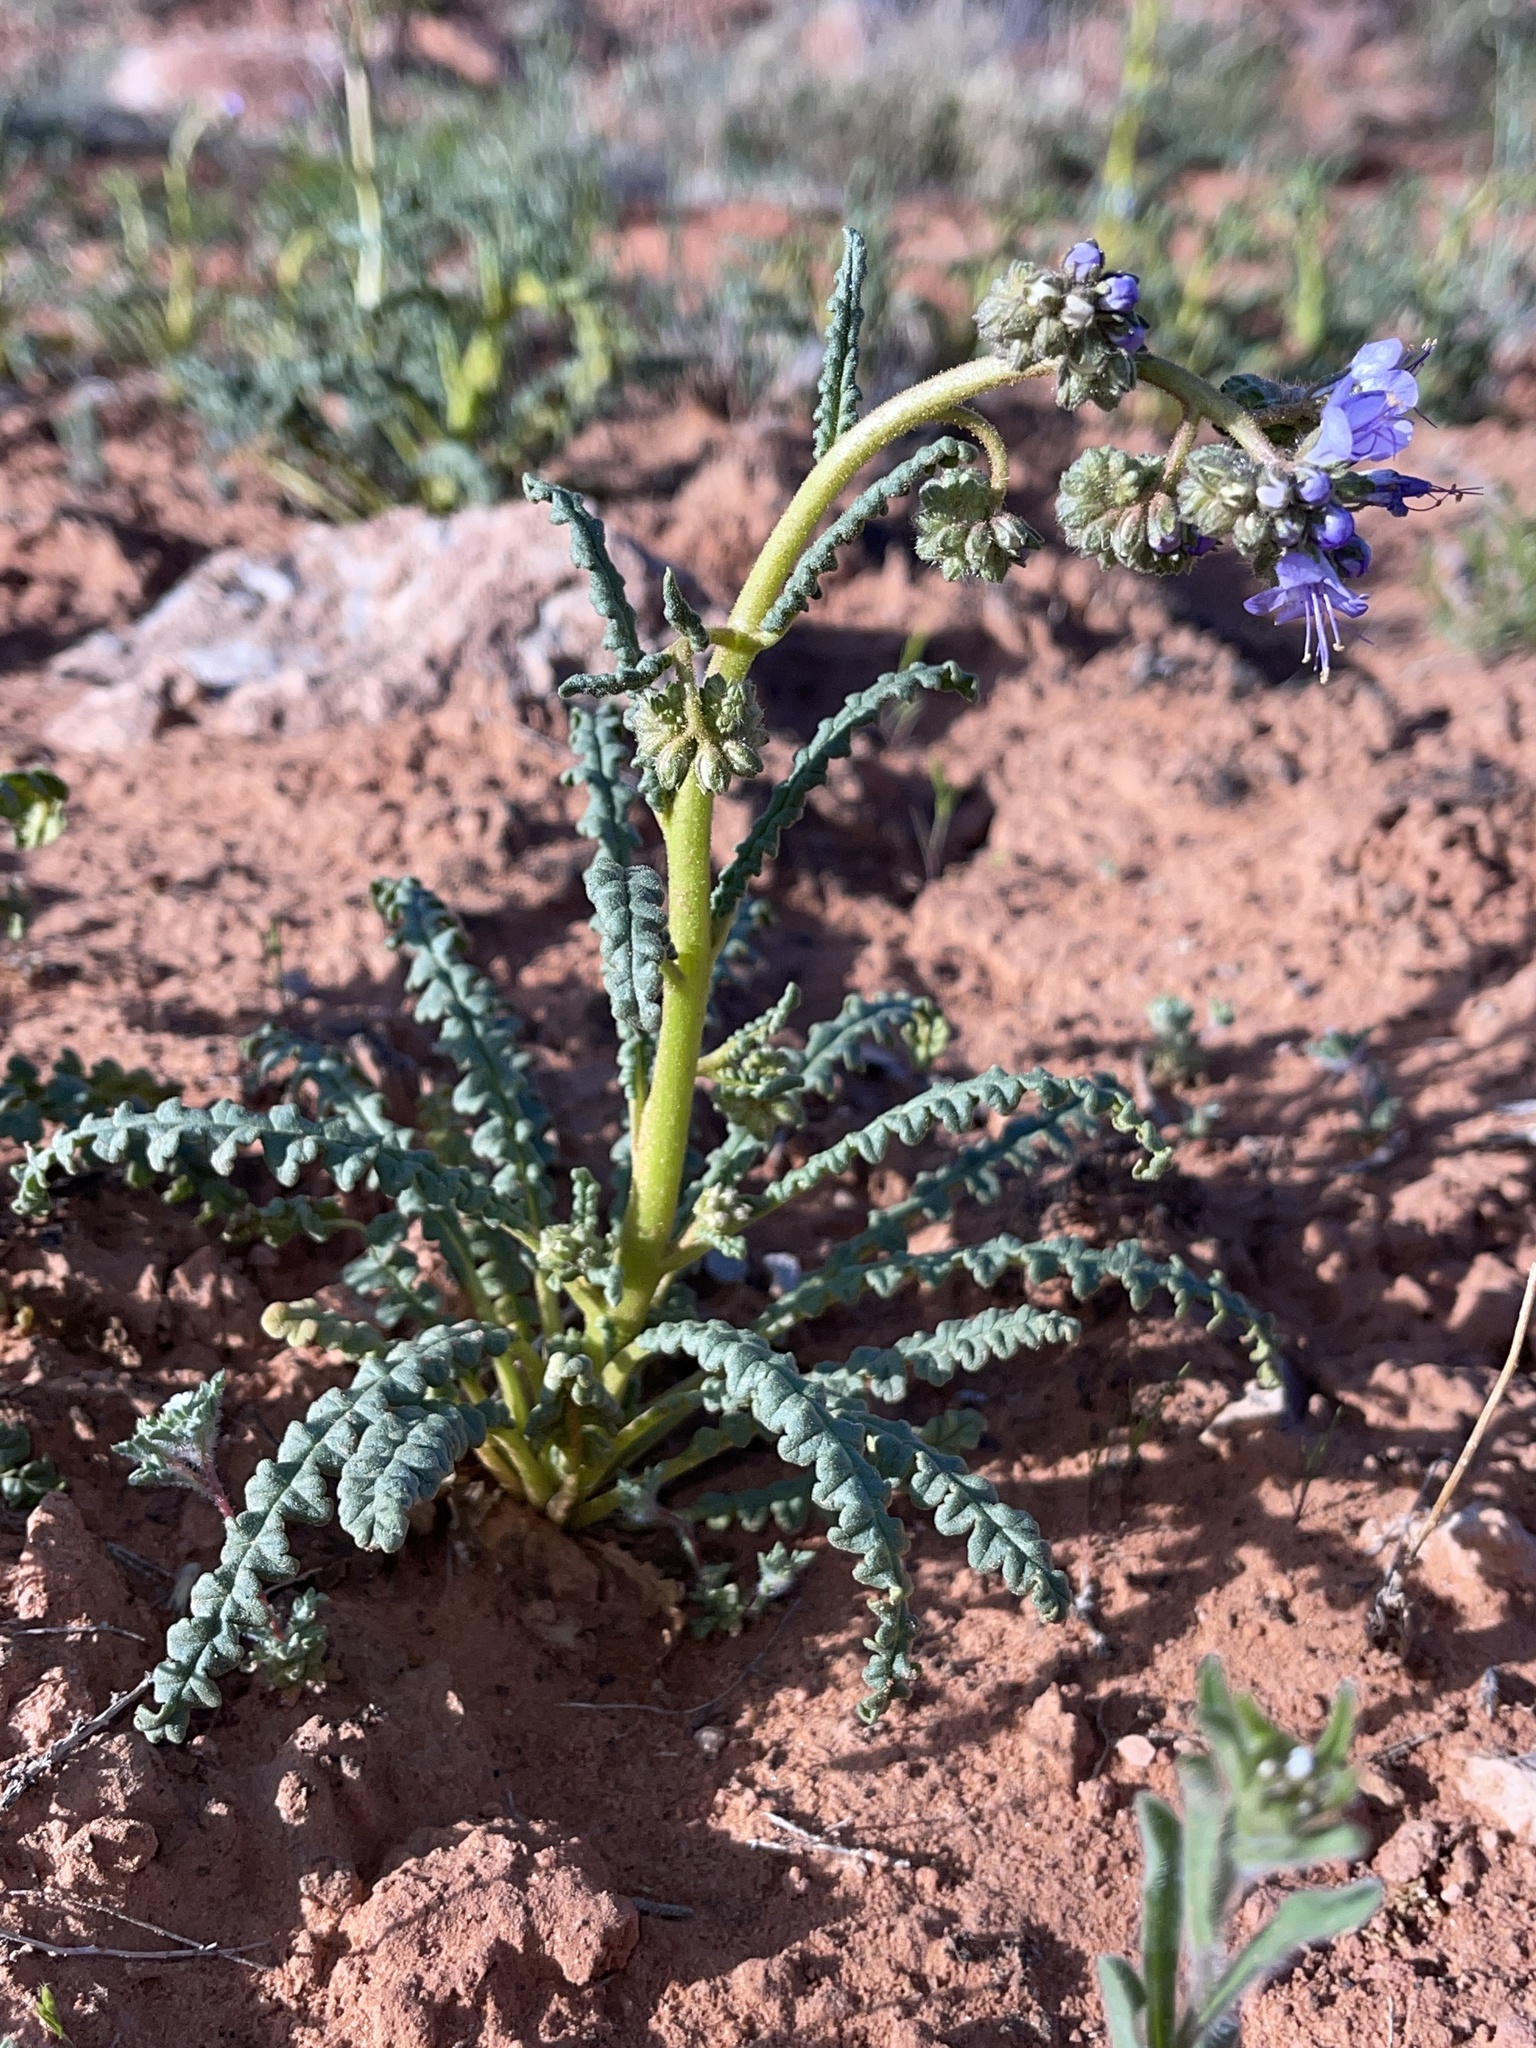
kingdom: Plantae
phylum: Tracheophyta
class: Magnoliopsida
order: Boraginales
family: Hydrophyllaceae
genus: Phacelia
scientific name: Phacelia crenulata
